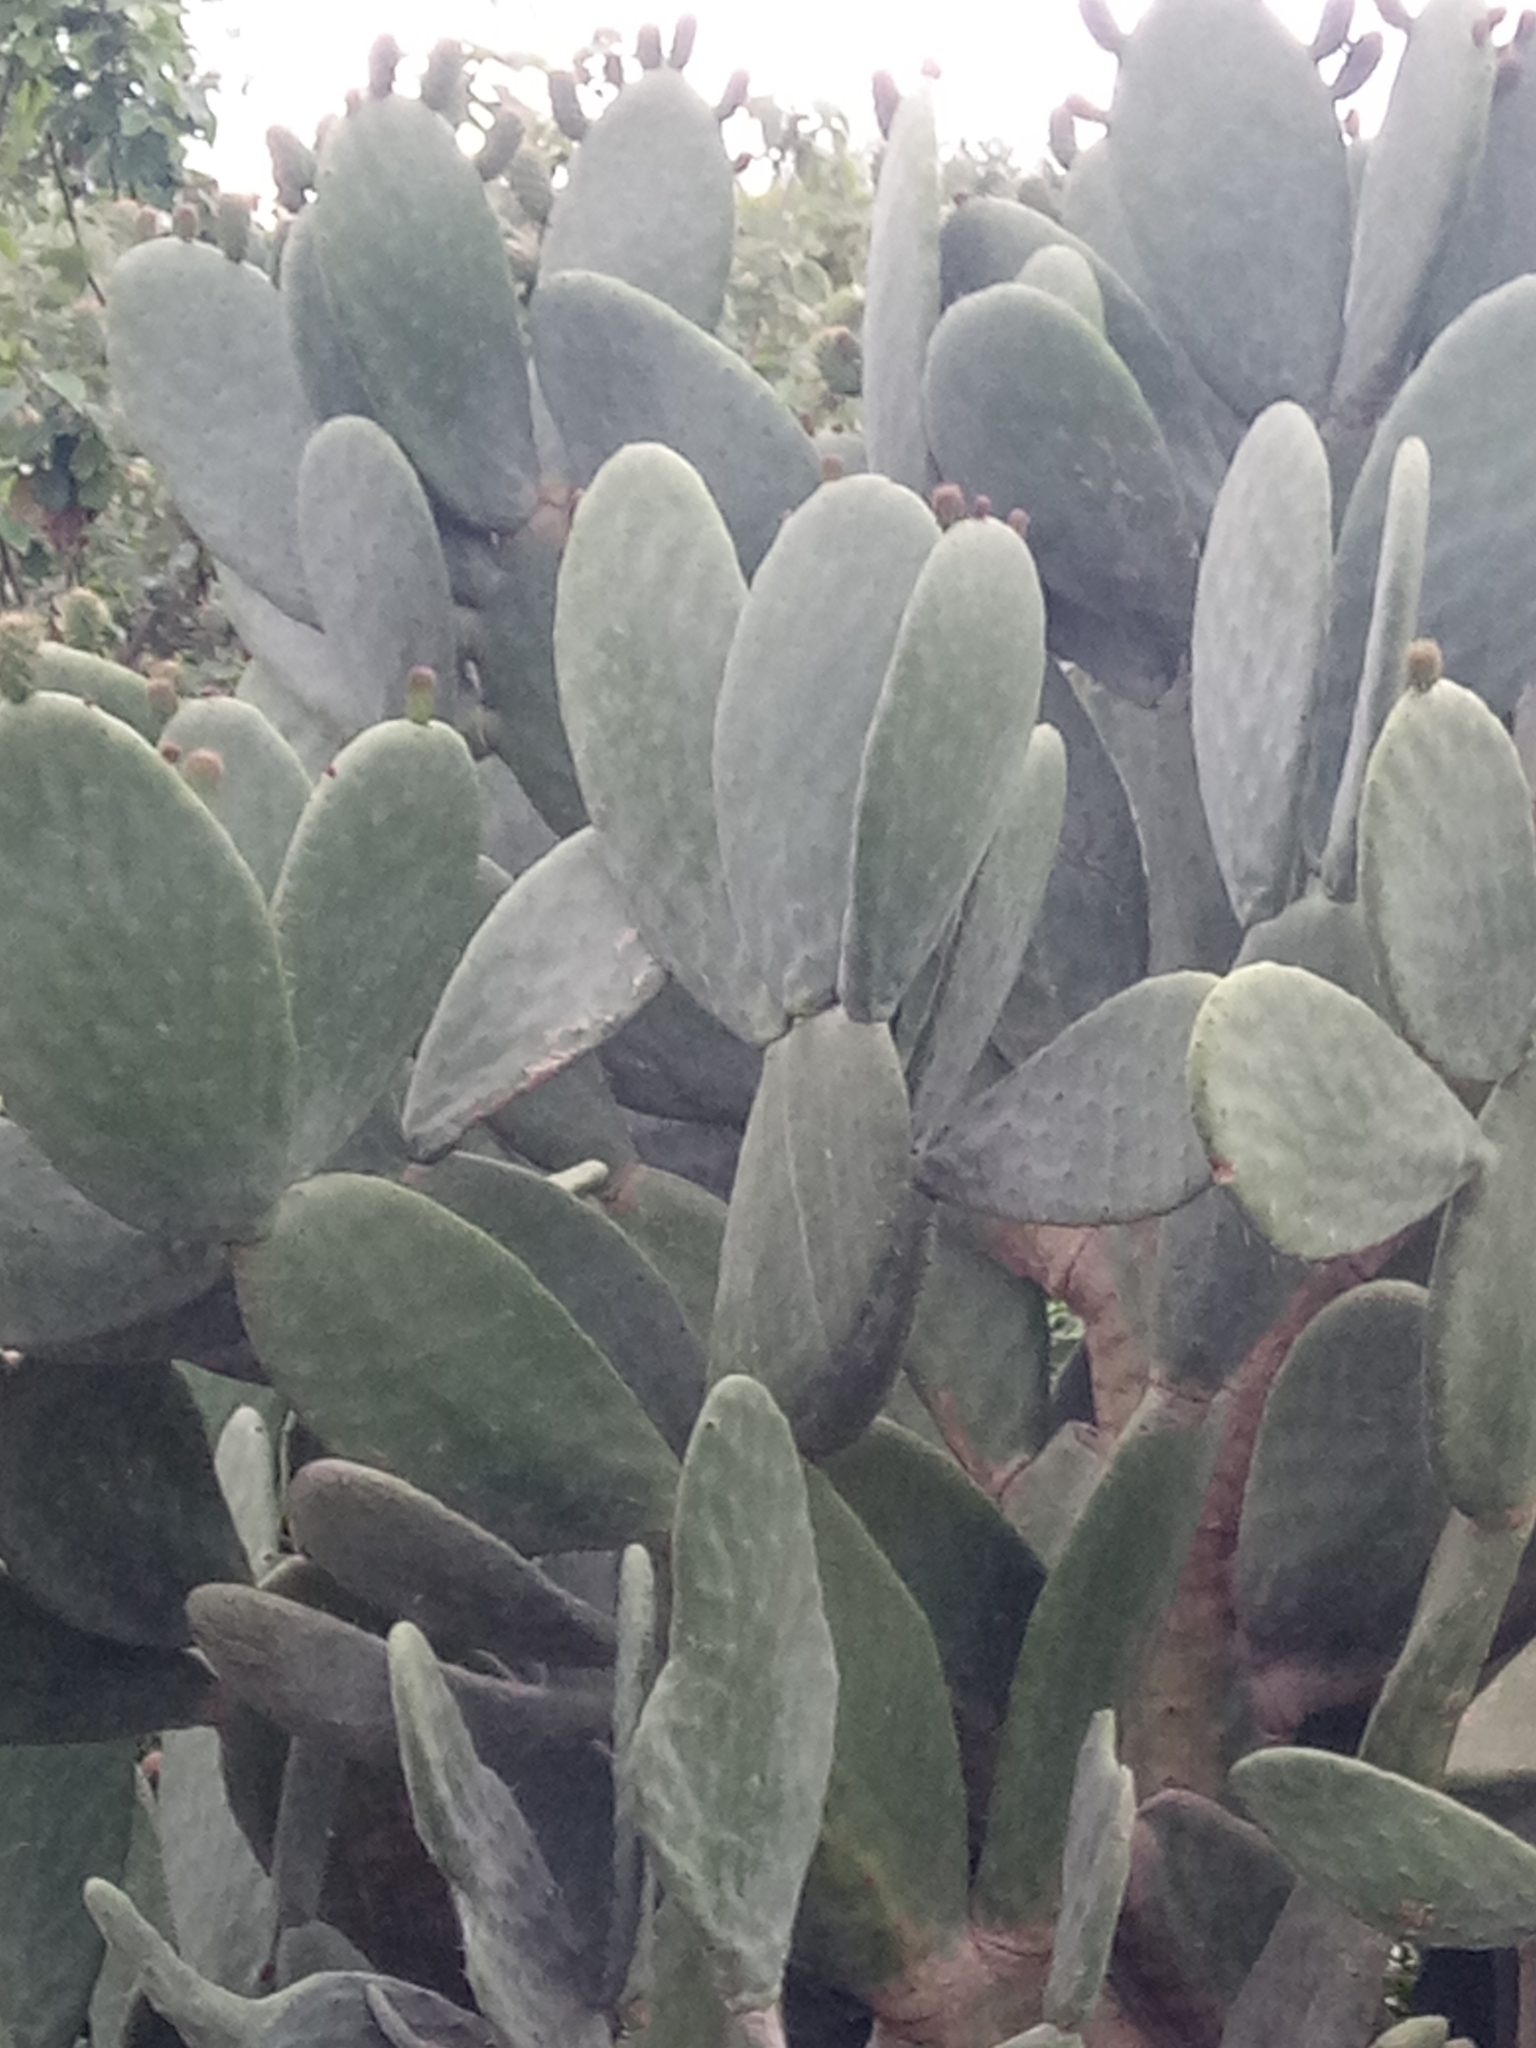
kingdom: Plantae
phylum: Tracheophyta
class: Magnoliopsida
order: Caryophyllales
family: Cactaceae
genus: Opuntia
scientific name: Opuntia ficus-indica
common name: Barbary fig
